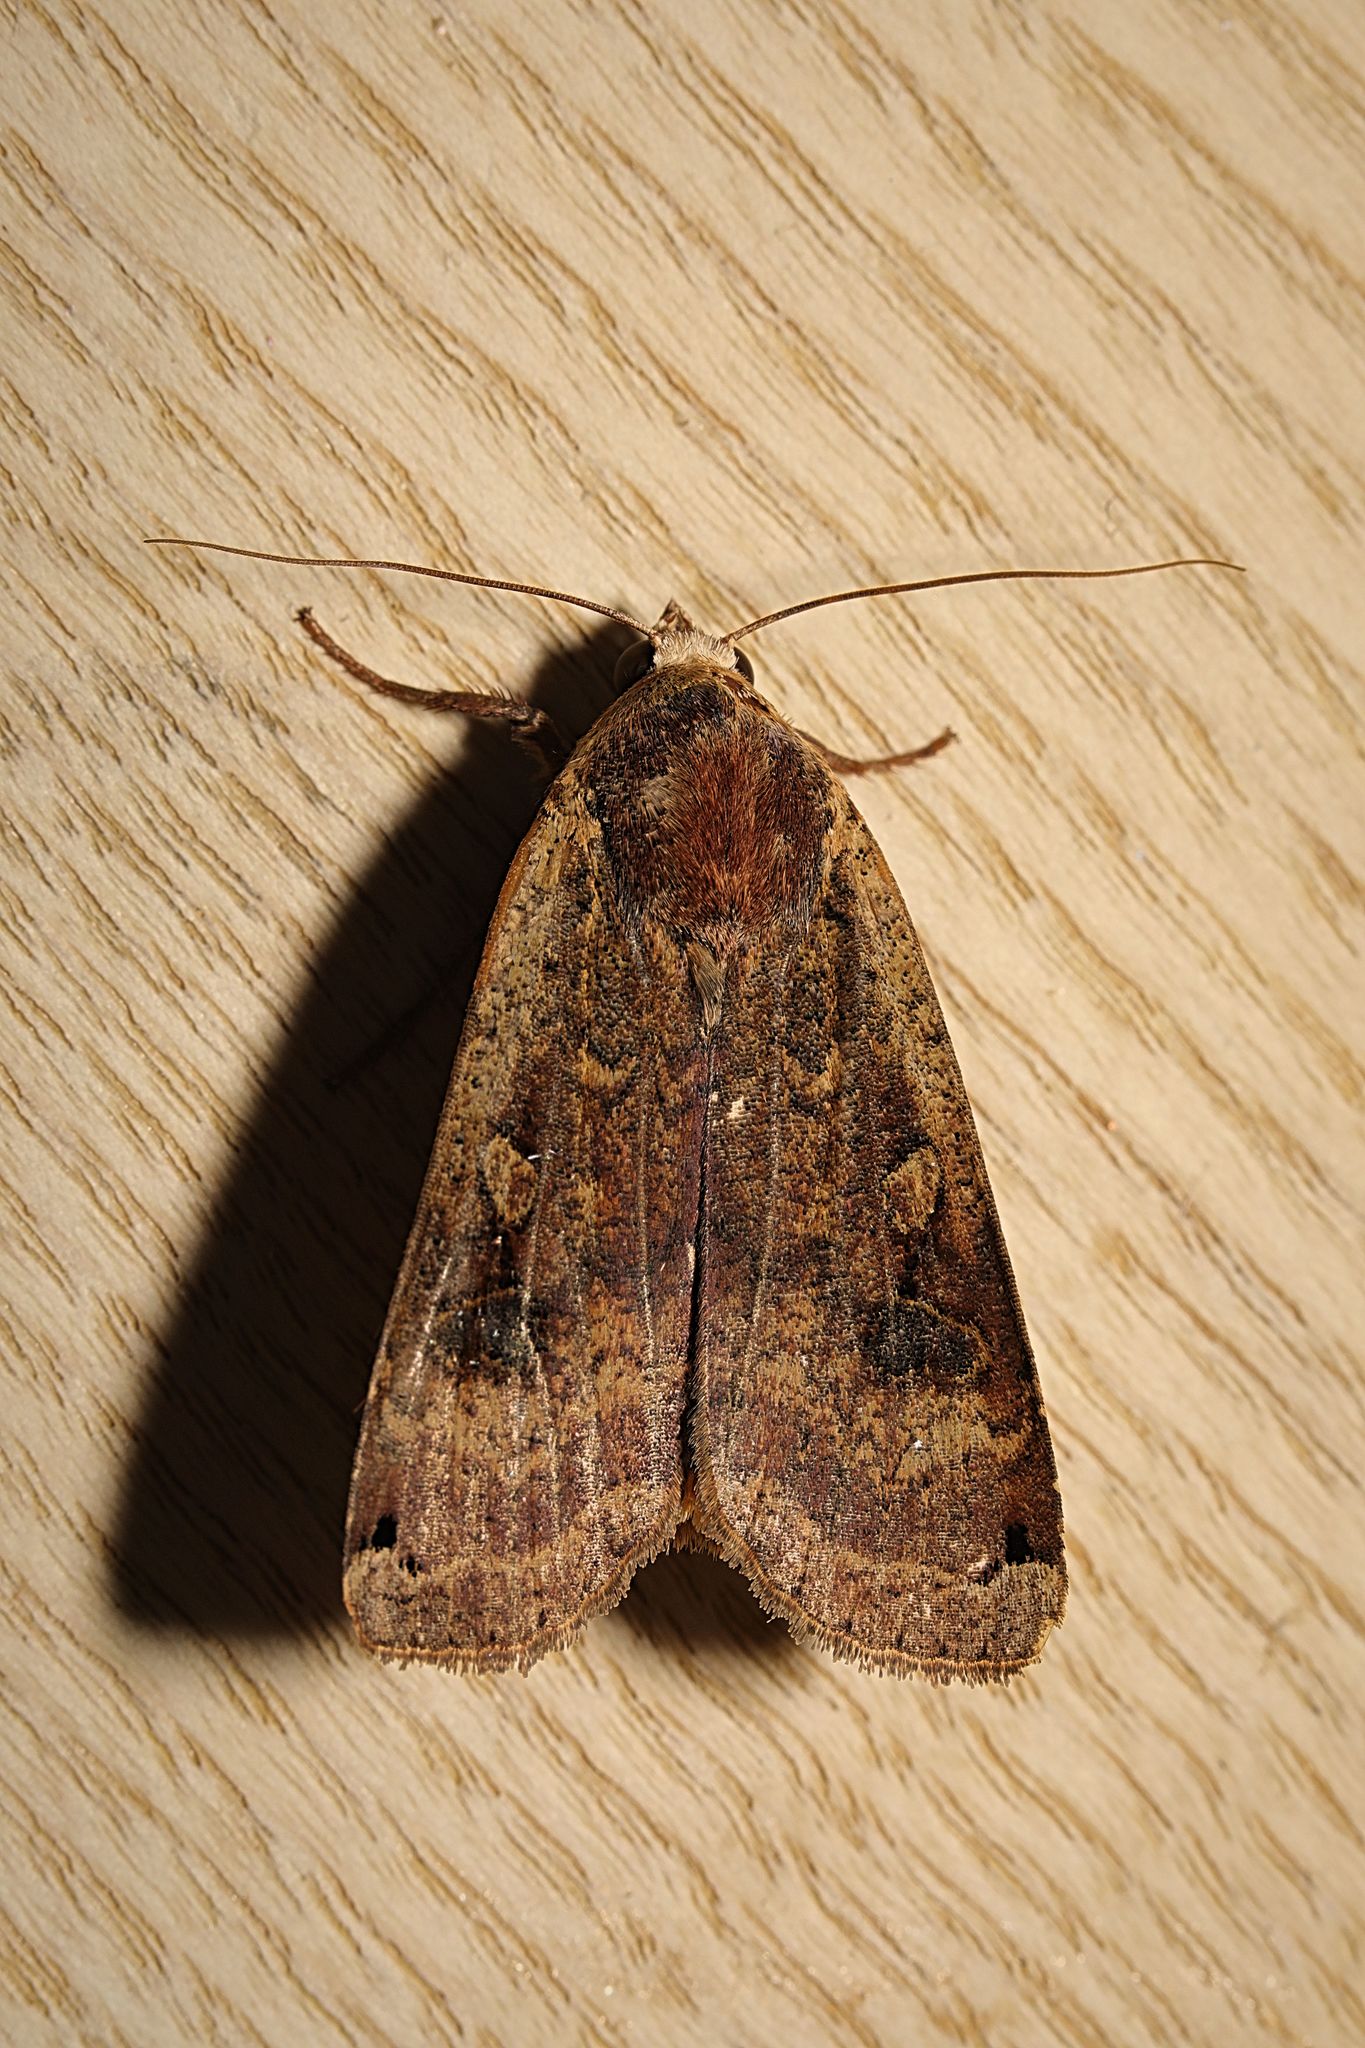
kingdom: Animalia
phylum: Arthropoda
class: Insecta
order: Lepidoptera
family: Noctuidae
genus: Noctua
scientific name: Noctua pronuba
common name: Large yellow underwing
